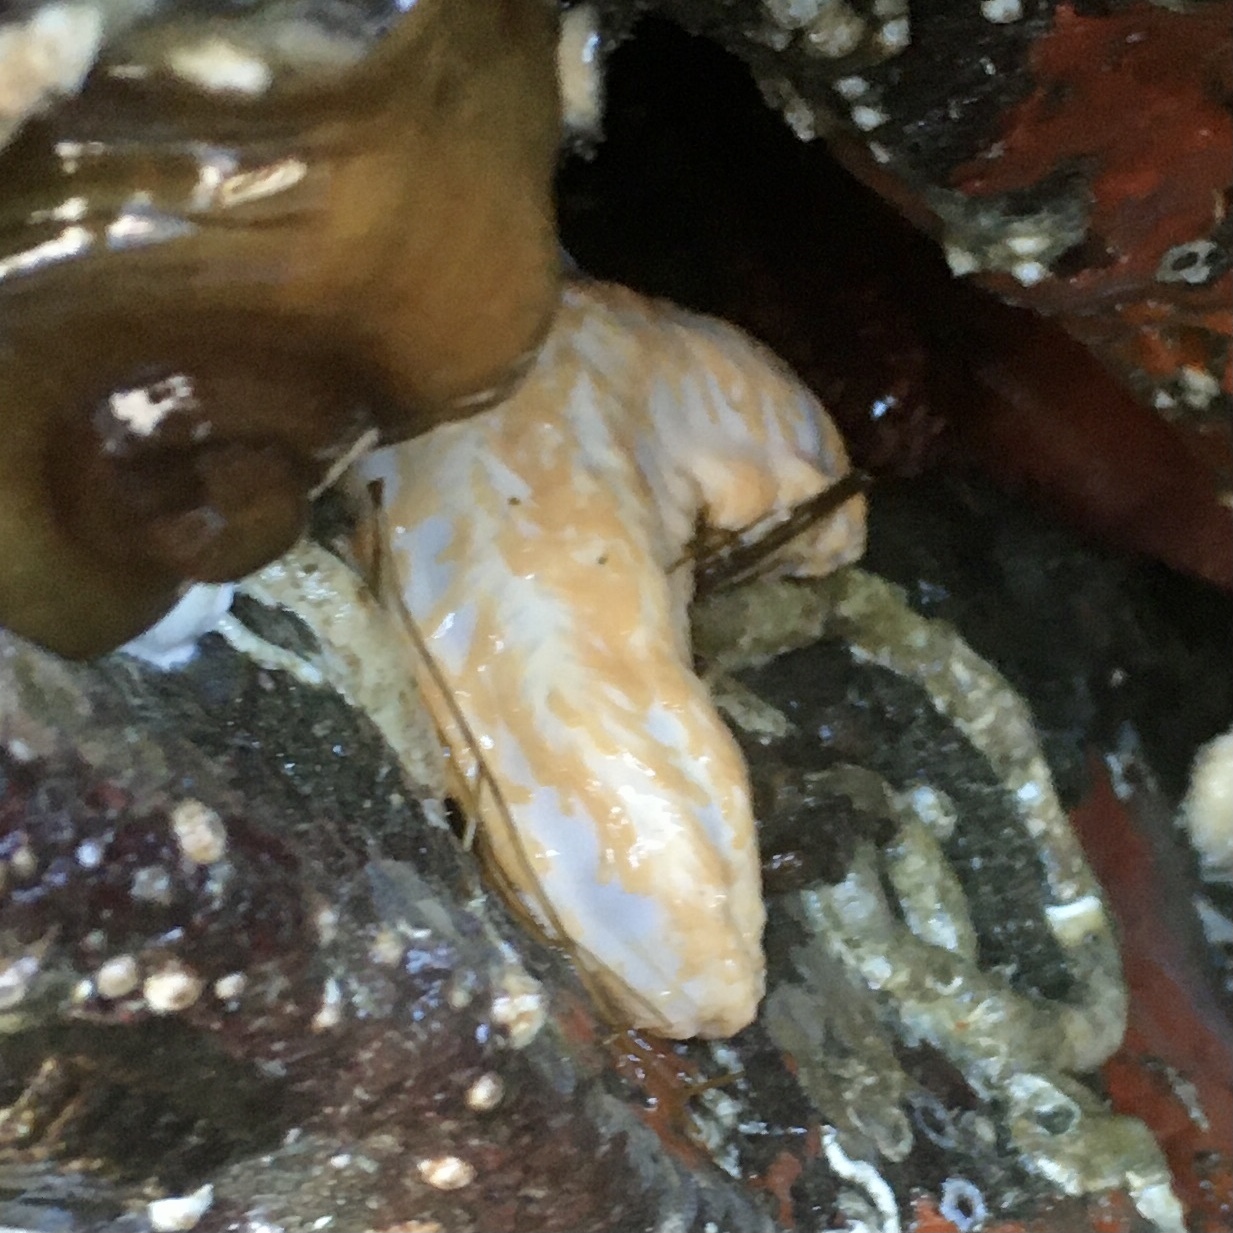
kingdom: Animalia
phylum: Echinodermata
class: Holothuroidea
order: Dendrochirotida
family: Sclerodactylidae
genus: Eupentacta
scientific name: Eupentacta quinquesemita
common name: Pentamerous sea cucumber
